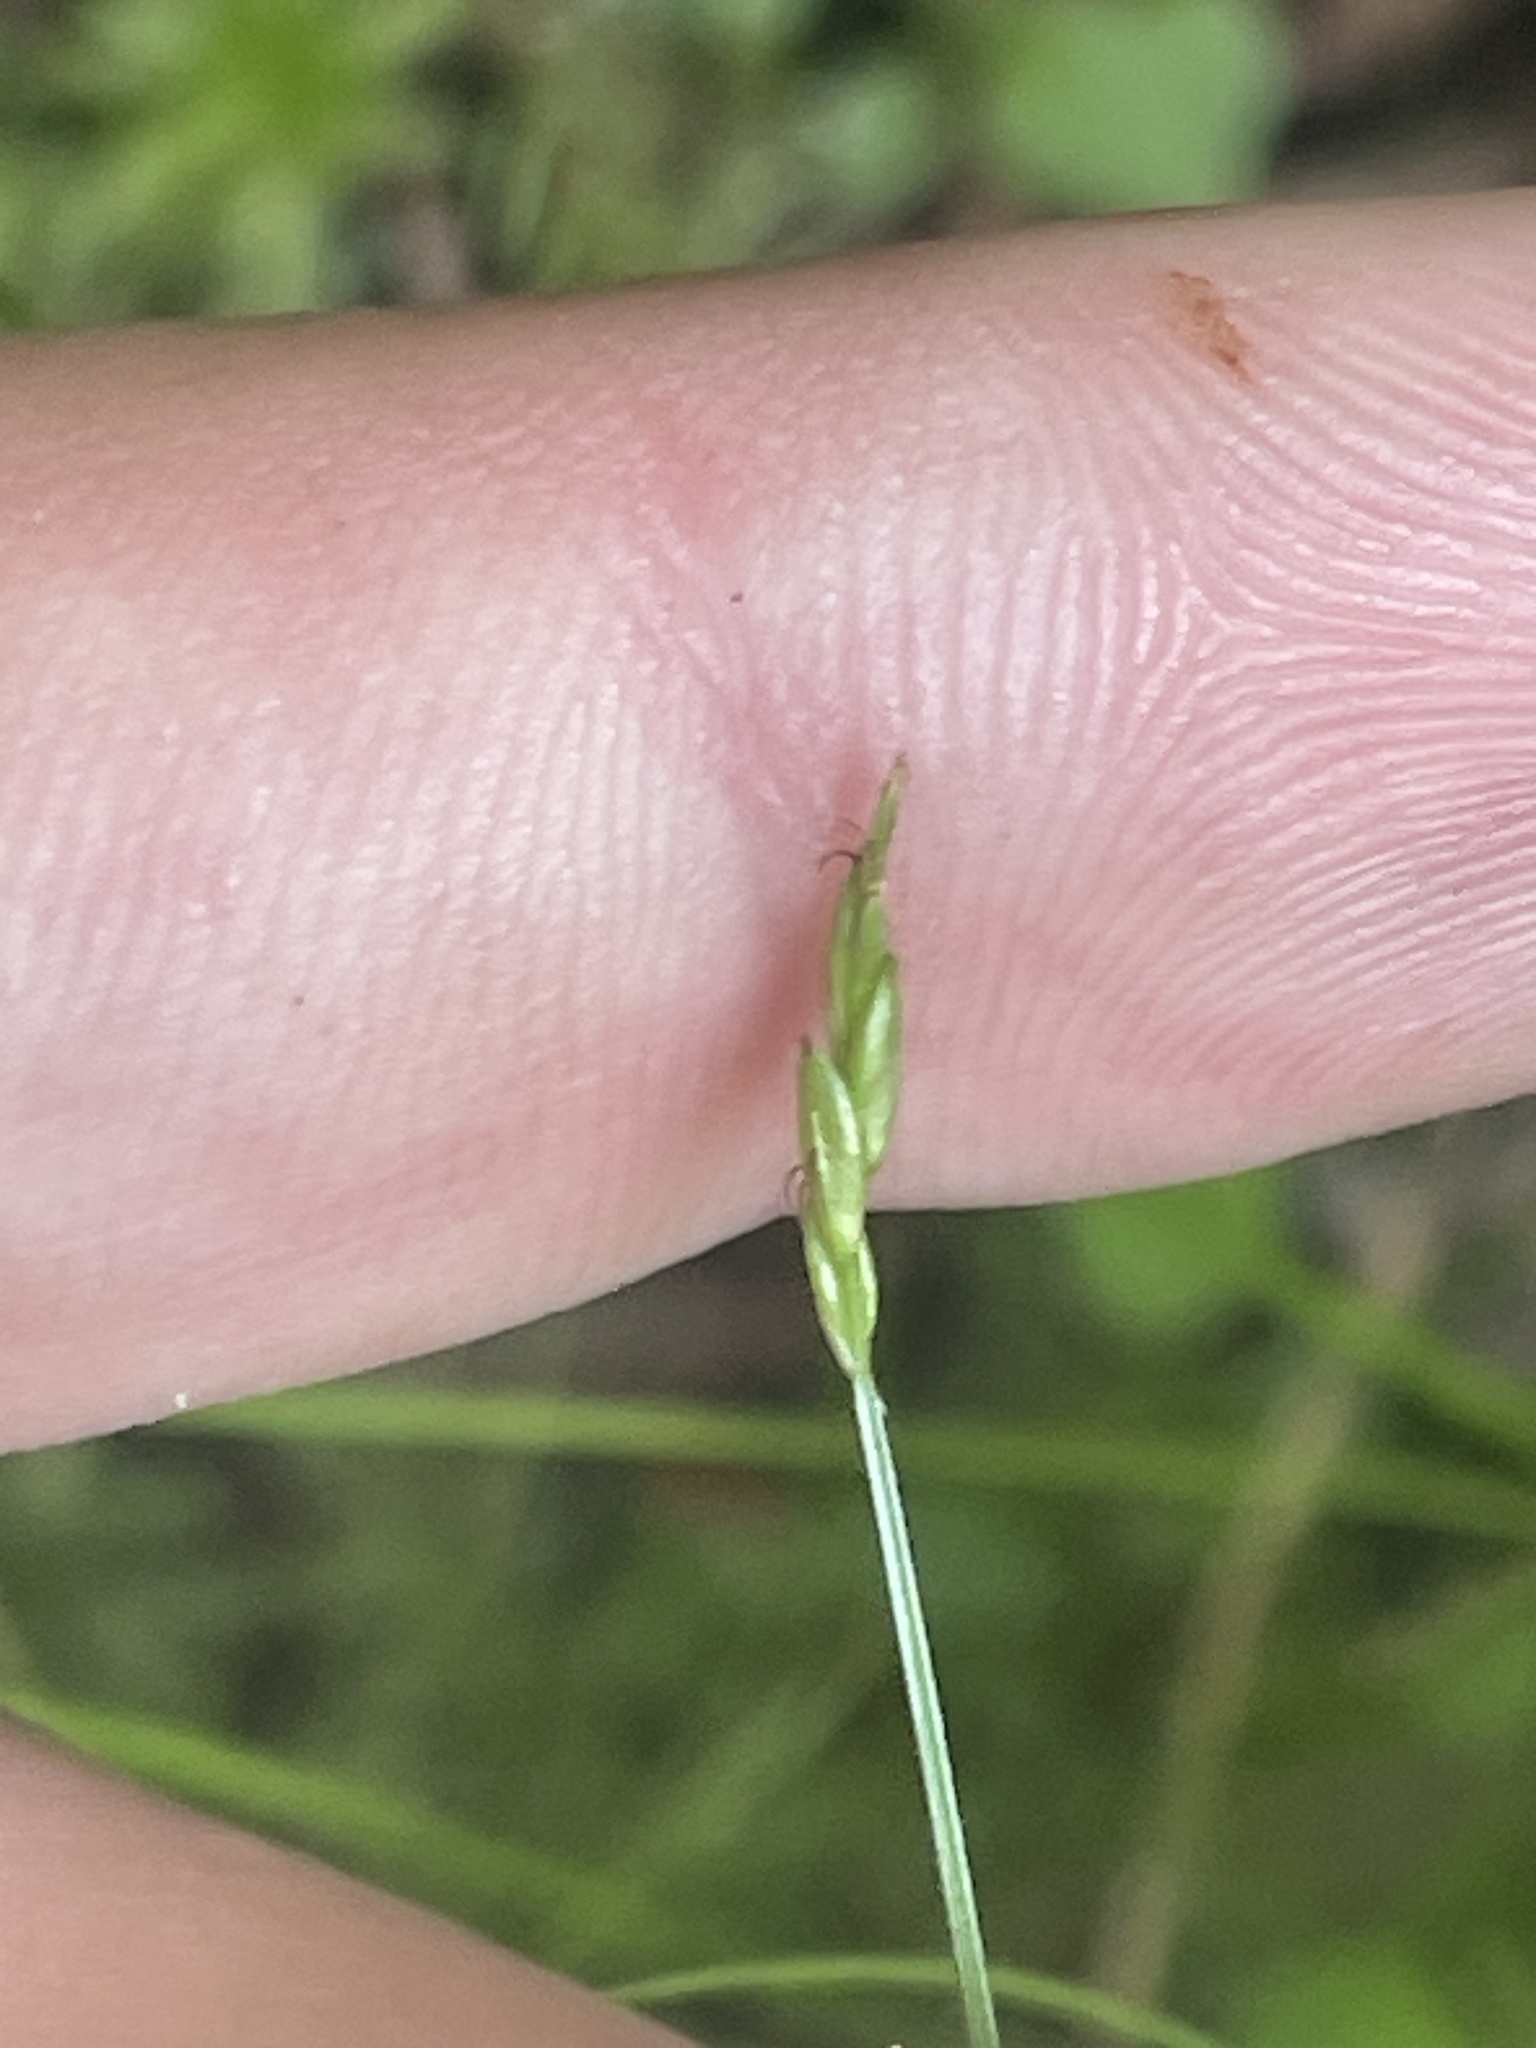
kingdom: Plantae
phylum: Tracheophyta
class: Liliopsida
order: Poales
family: Cyperaceae
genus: Carex
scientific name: Carex leptalea
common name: Bristly-stalked sedge
